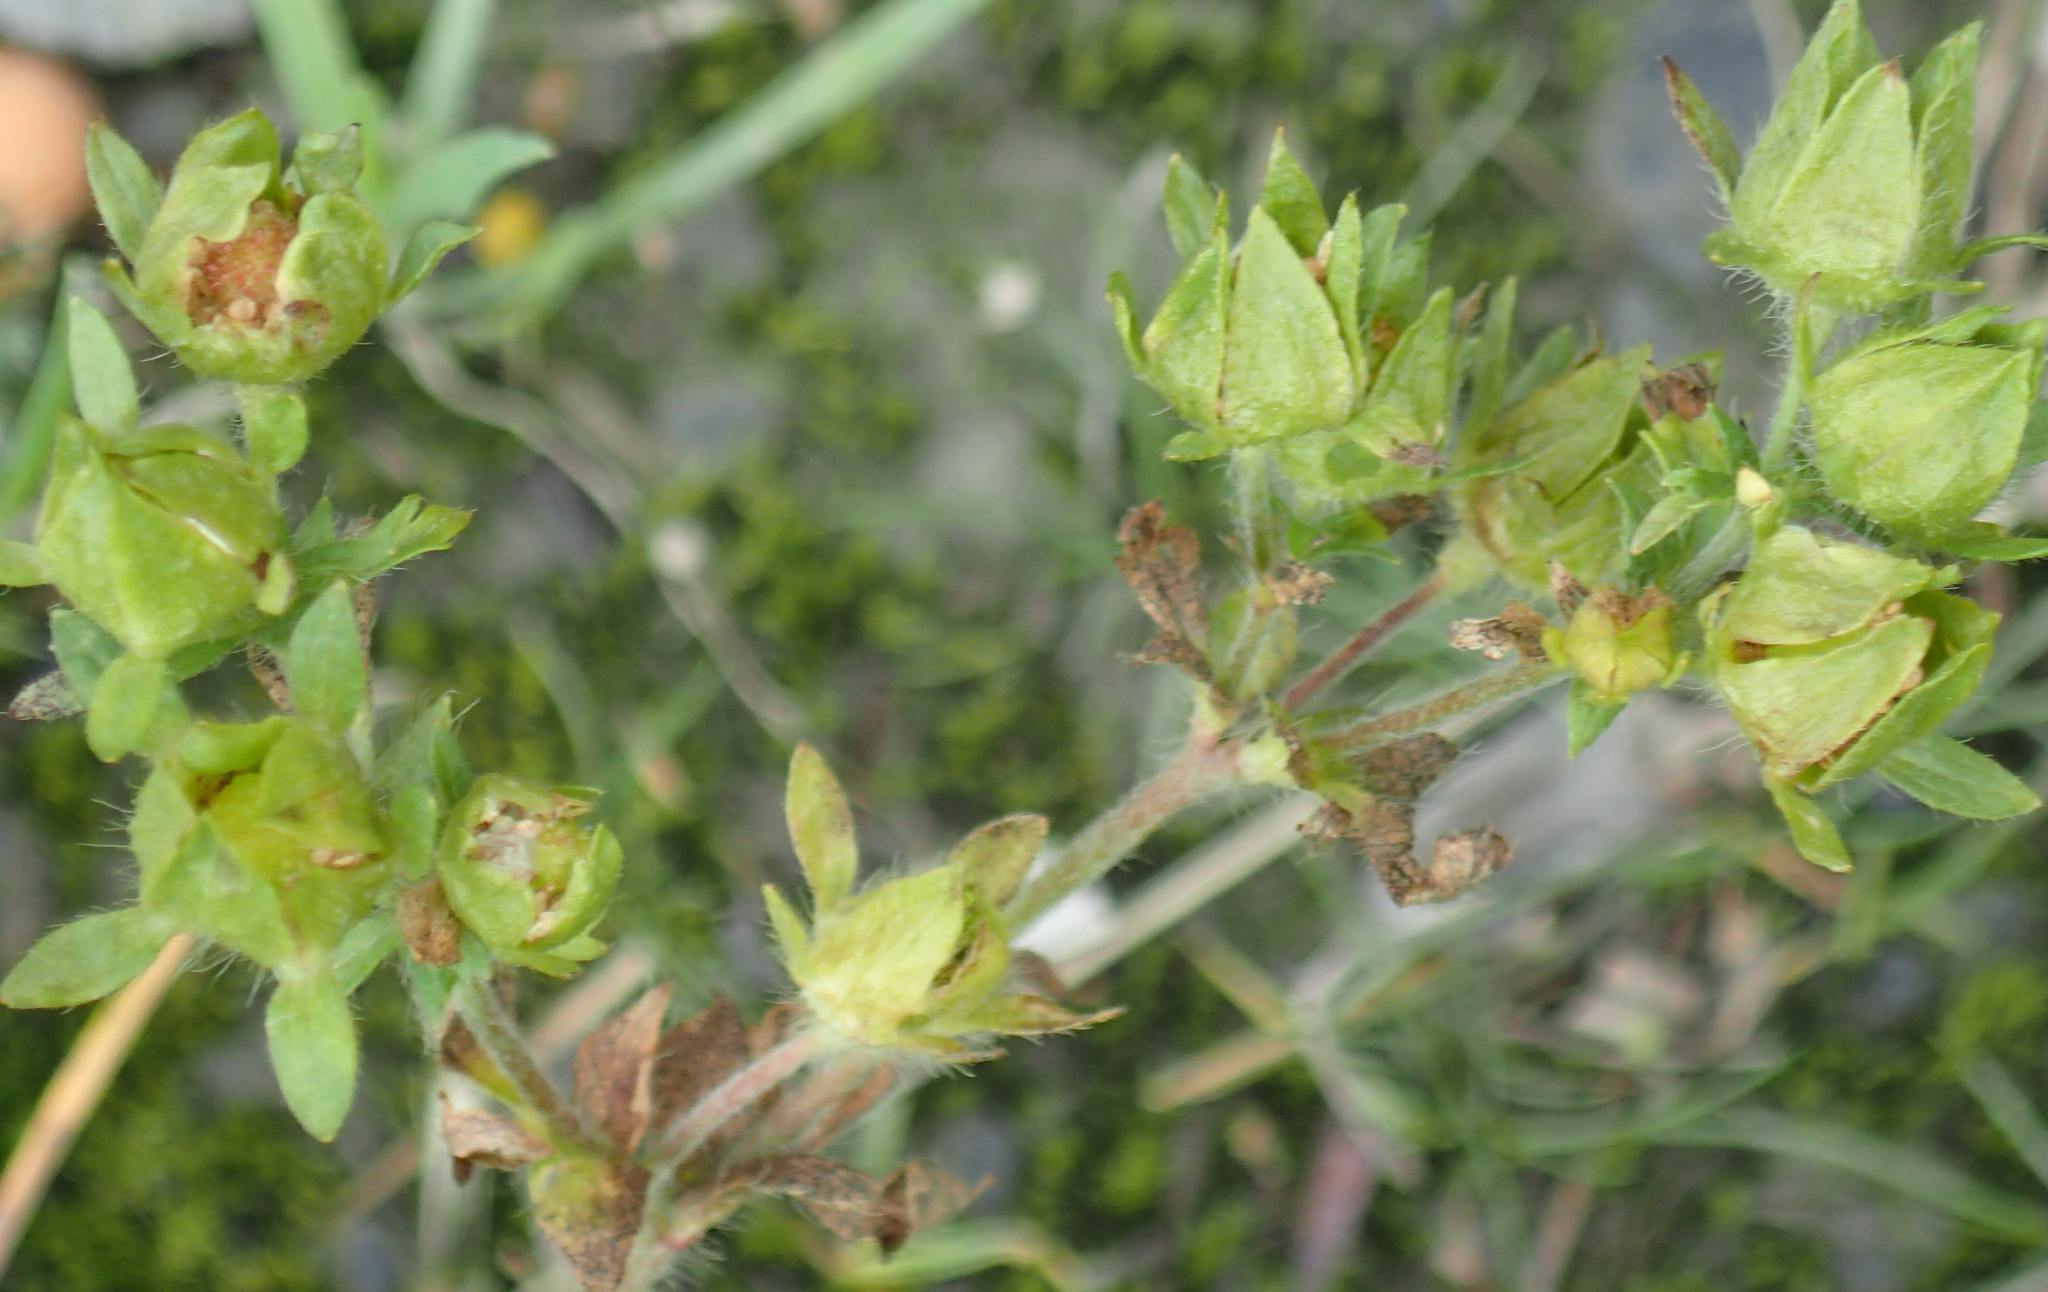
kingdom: Plantae
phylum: Tracheophyta
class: Magnoliopsida
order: Rosales
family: Rosaceae
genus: Potentilla
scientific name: Potentilla norvegica
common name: Ternate-leaved cinquefoil
